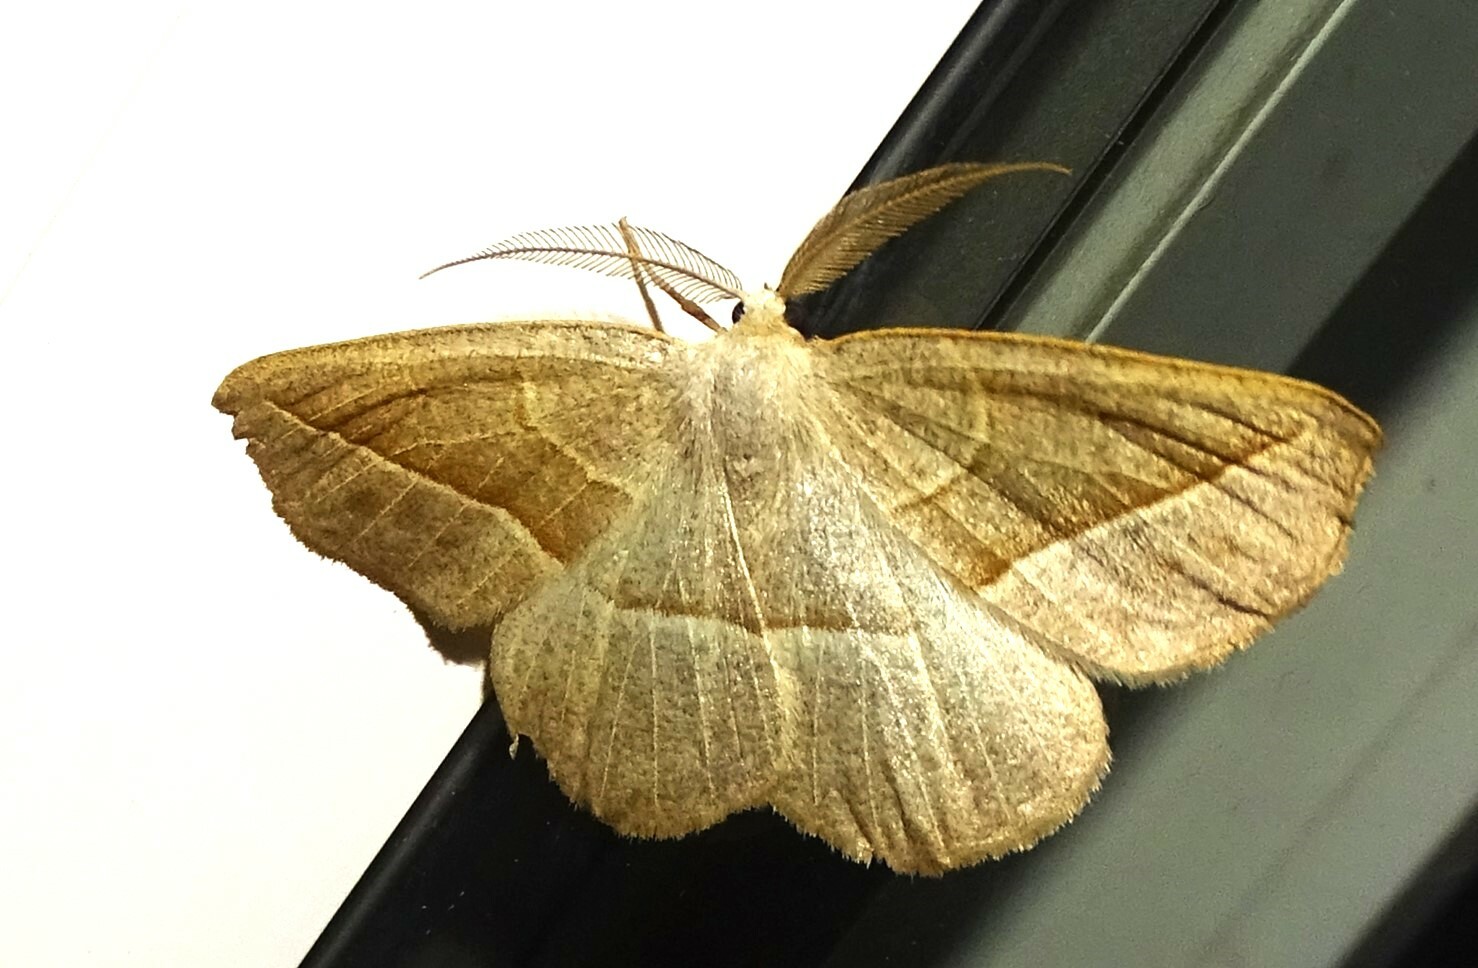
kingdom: Animalia
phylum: Arthropoda
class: Insecta
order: Lepidoptera
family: Geometridae
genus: Eusarca
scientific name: Eusarca confusaria
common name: Confused eusarca
